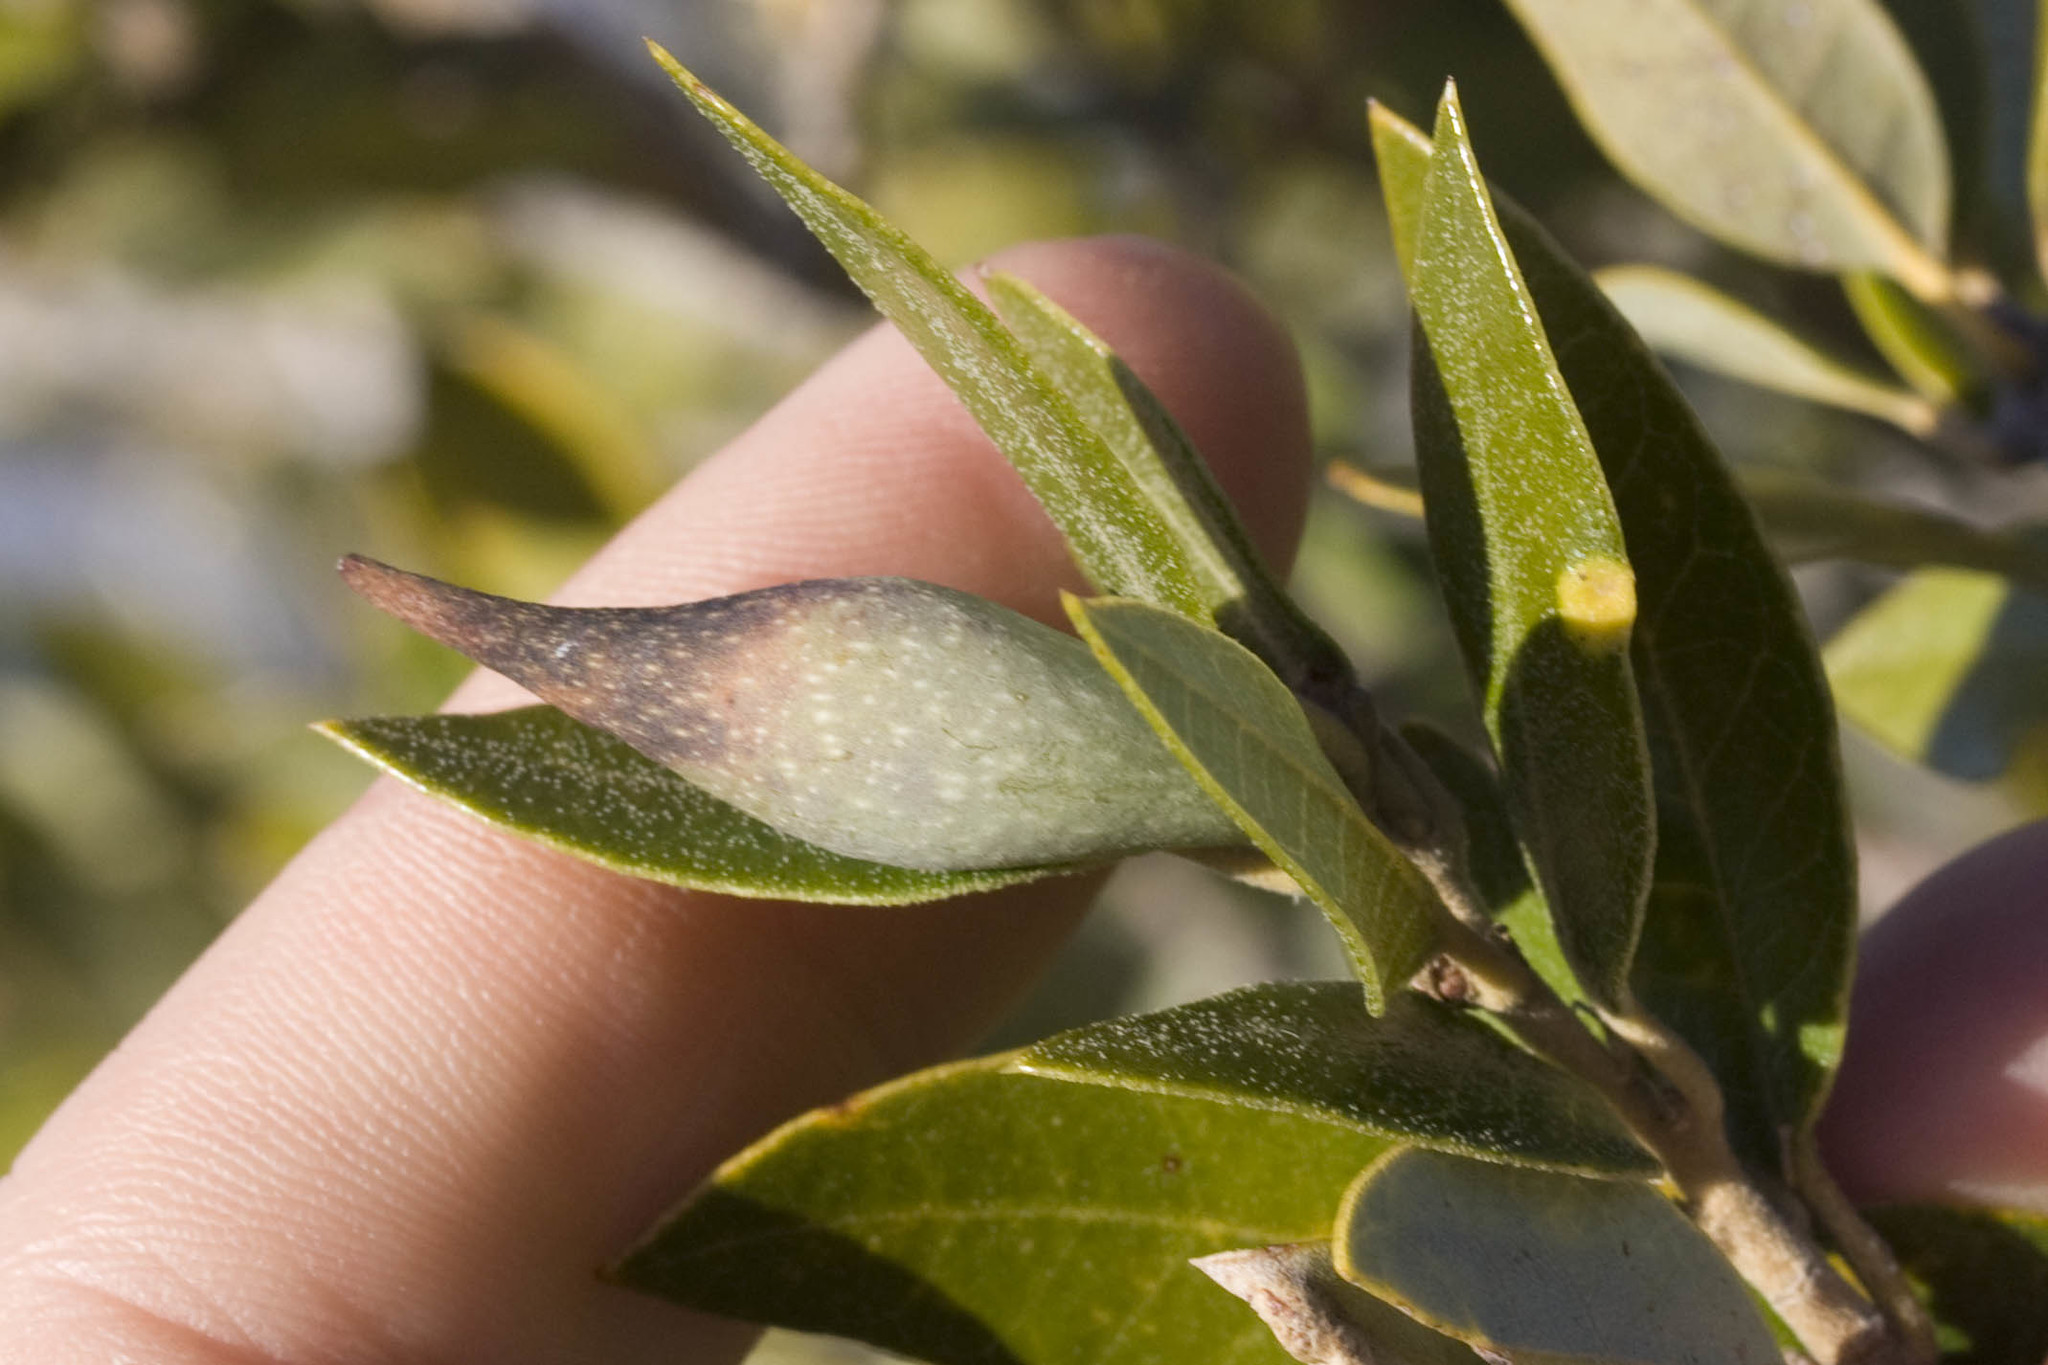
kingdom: Animalia
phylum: Arthropoda
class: Insecta
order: Hymenoptera
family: Cynipidae
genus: Heteroecus
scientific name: Heteroecus pacificus
